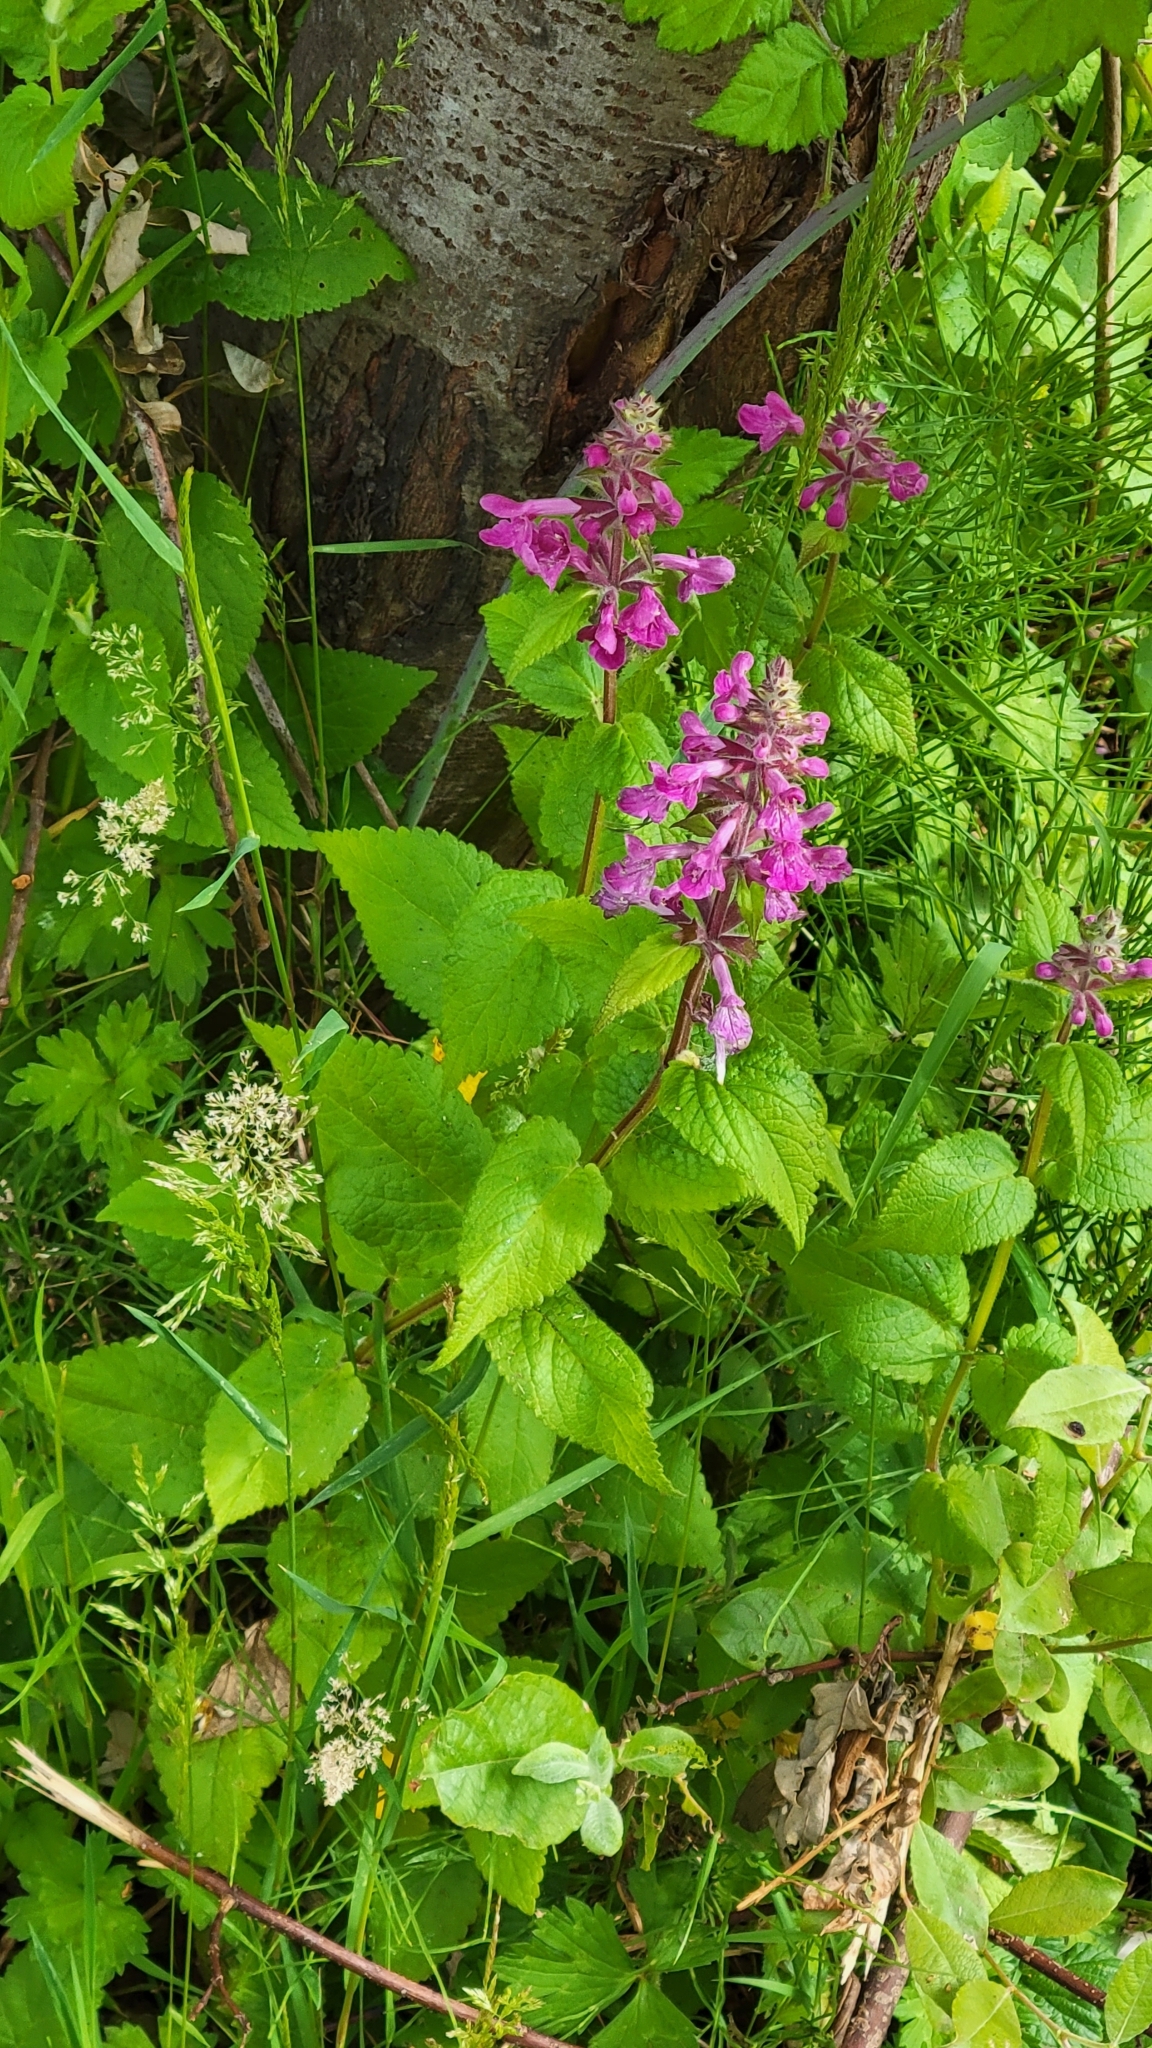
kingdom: Plantae
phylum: Tracheophyta
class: Magnoliopsida
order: Lamiales
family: Lamiaceae
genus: Stachys
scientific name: Stachys chamissonis
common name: Coastal hedge-nettle
